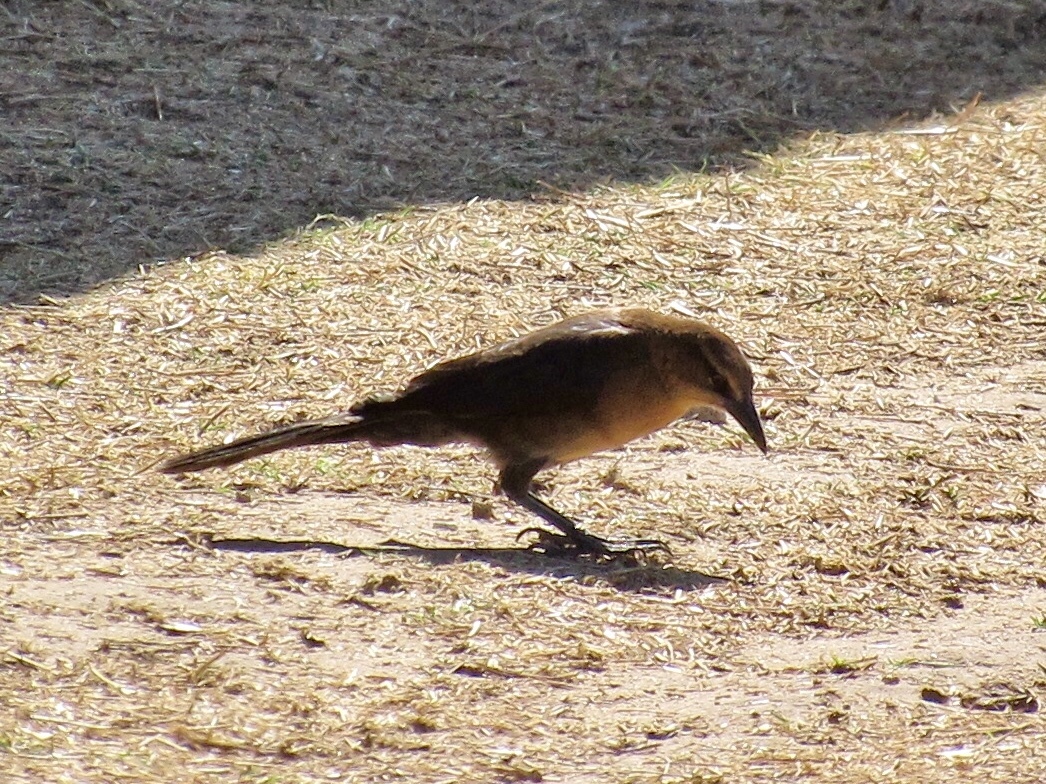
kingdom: Animalia
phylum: Chordata
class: Aves
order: Passeriformes
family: Icteridae
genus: Quiscalus
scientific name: Quiscalus mexicanus
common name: Great-tailed grackle
